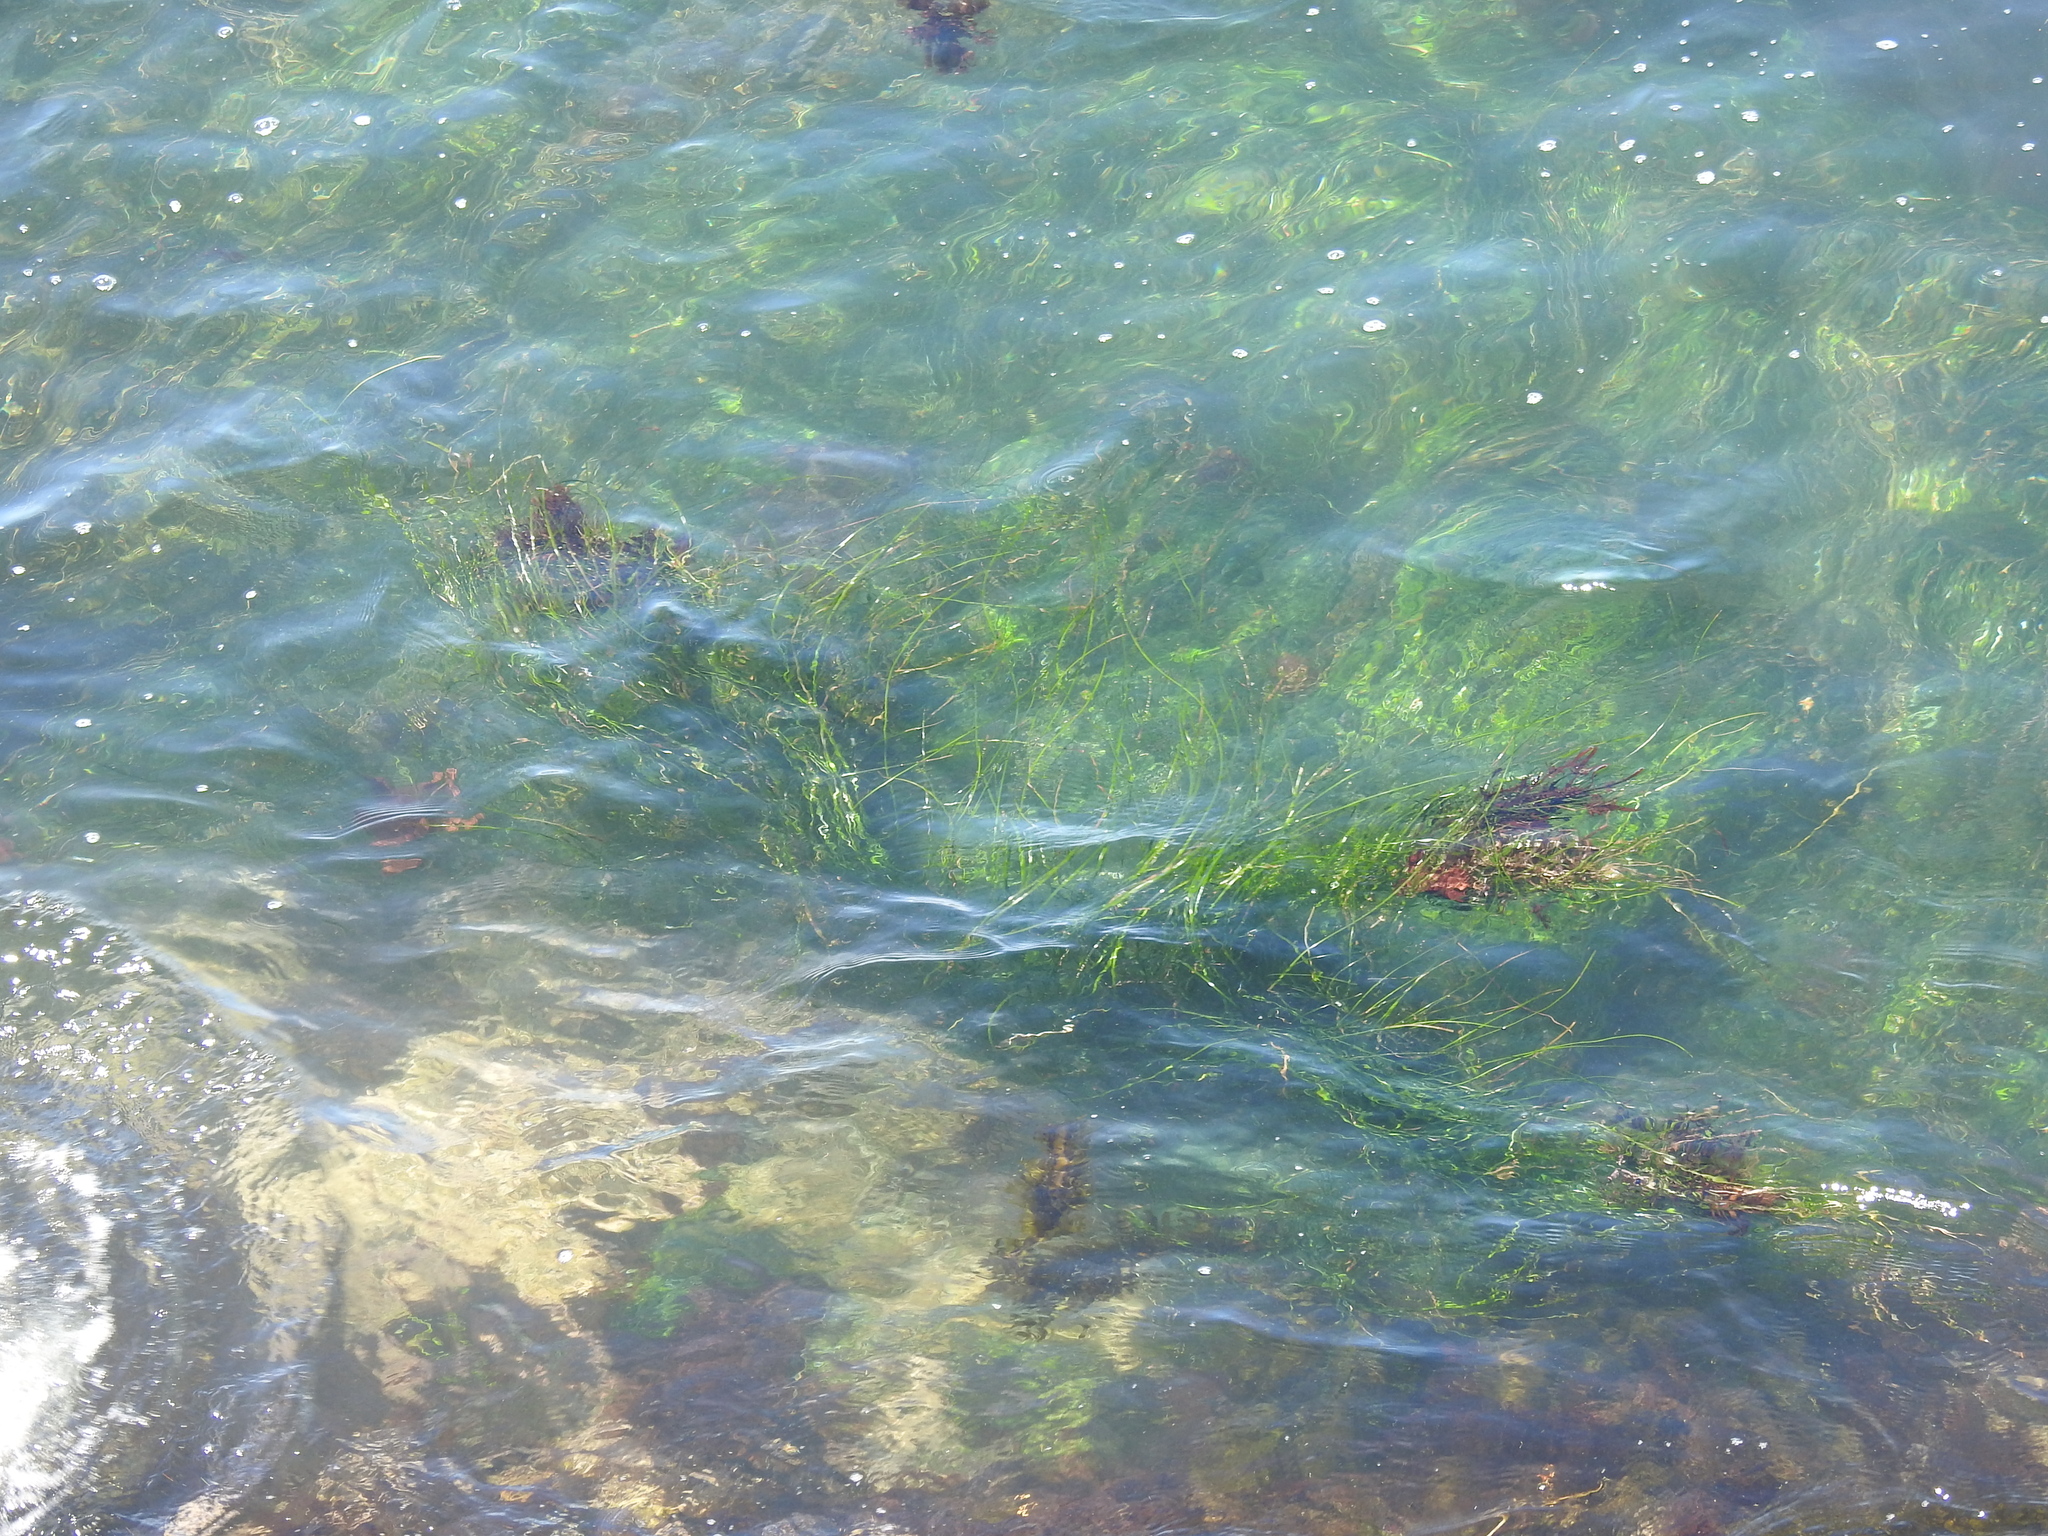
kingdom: Plantae
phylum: Tracheophyta
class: Liliopsida
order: Alismatales
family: Zosteraceae
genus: Phyllospadix
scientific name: Phyllospadix torreyi
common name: Surfgrass
